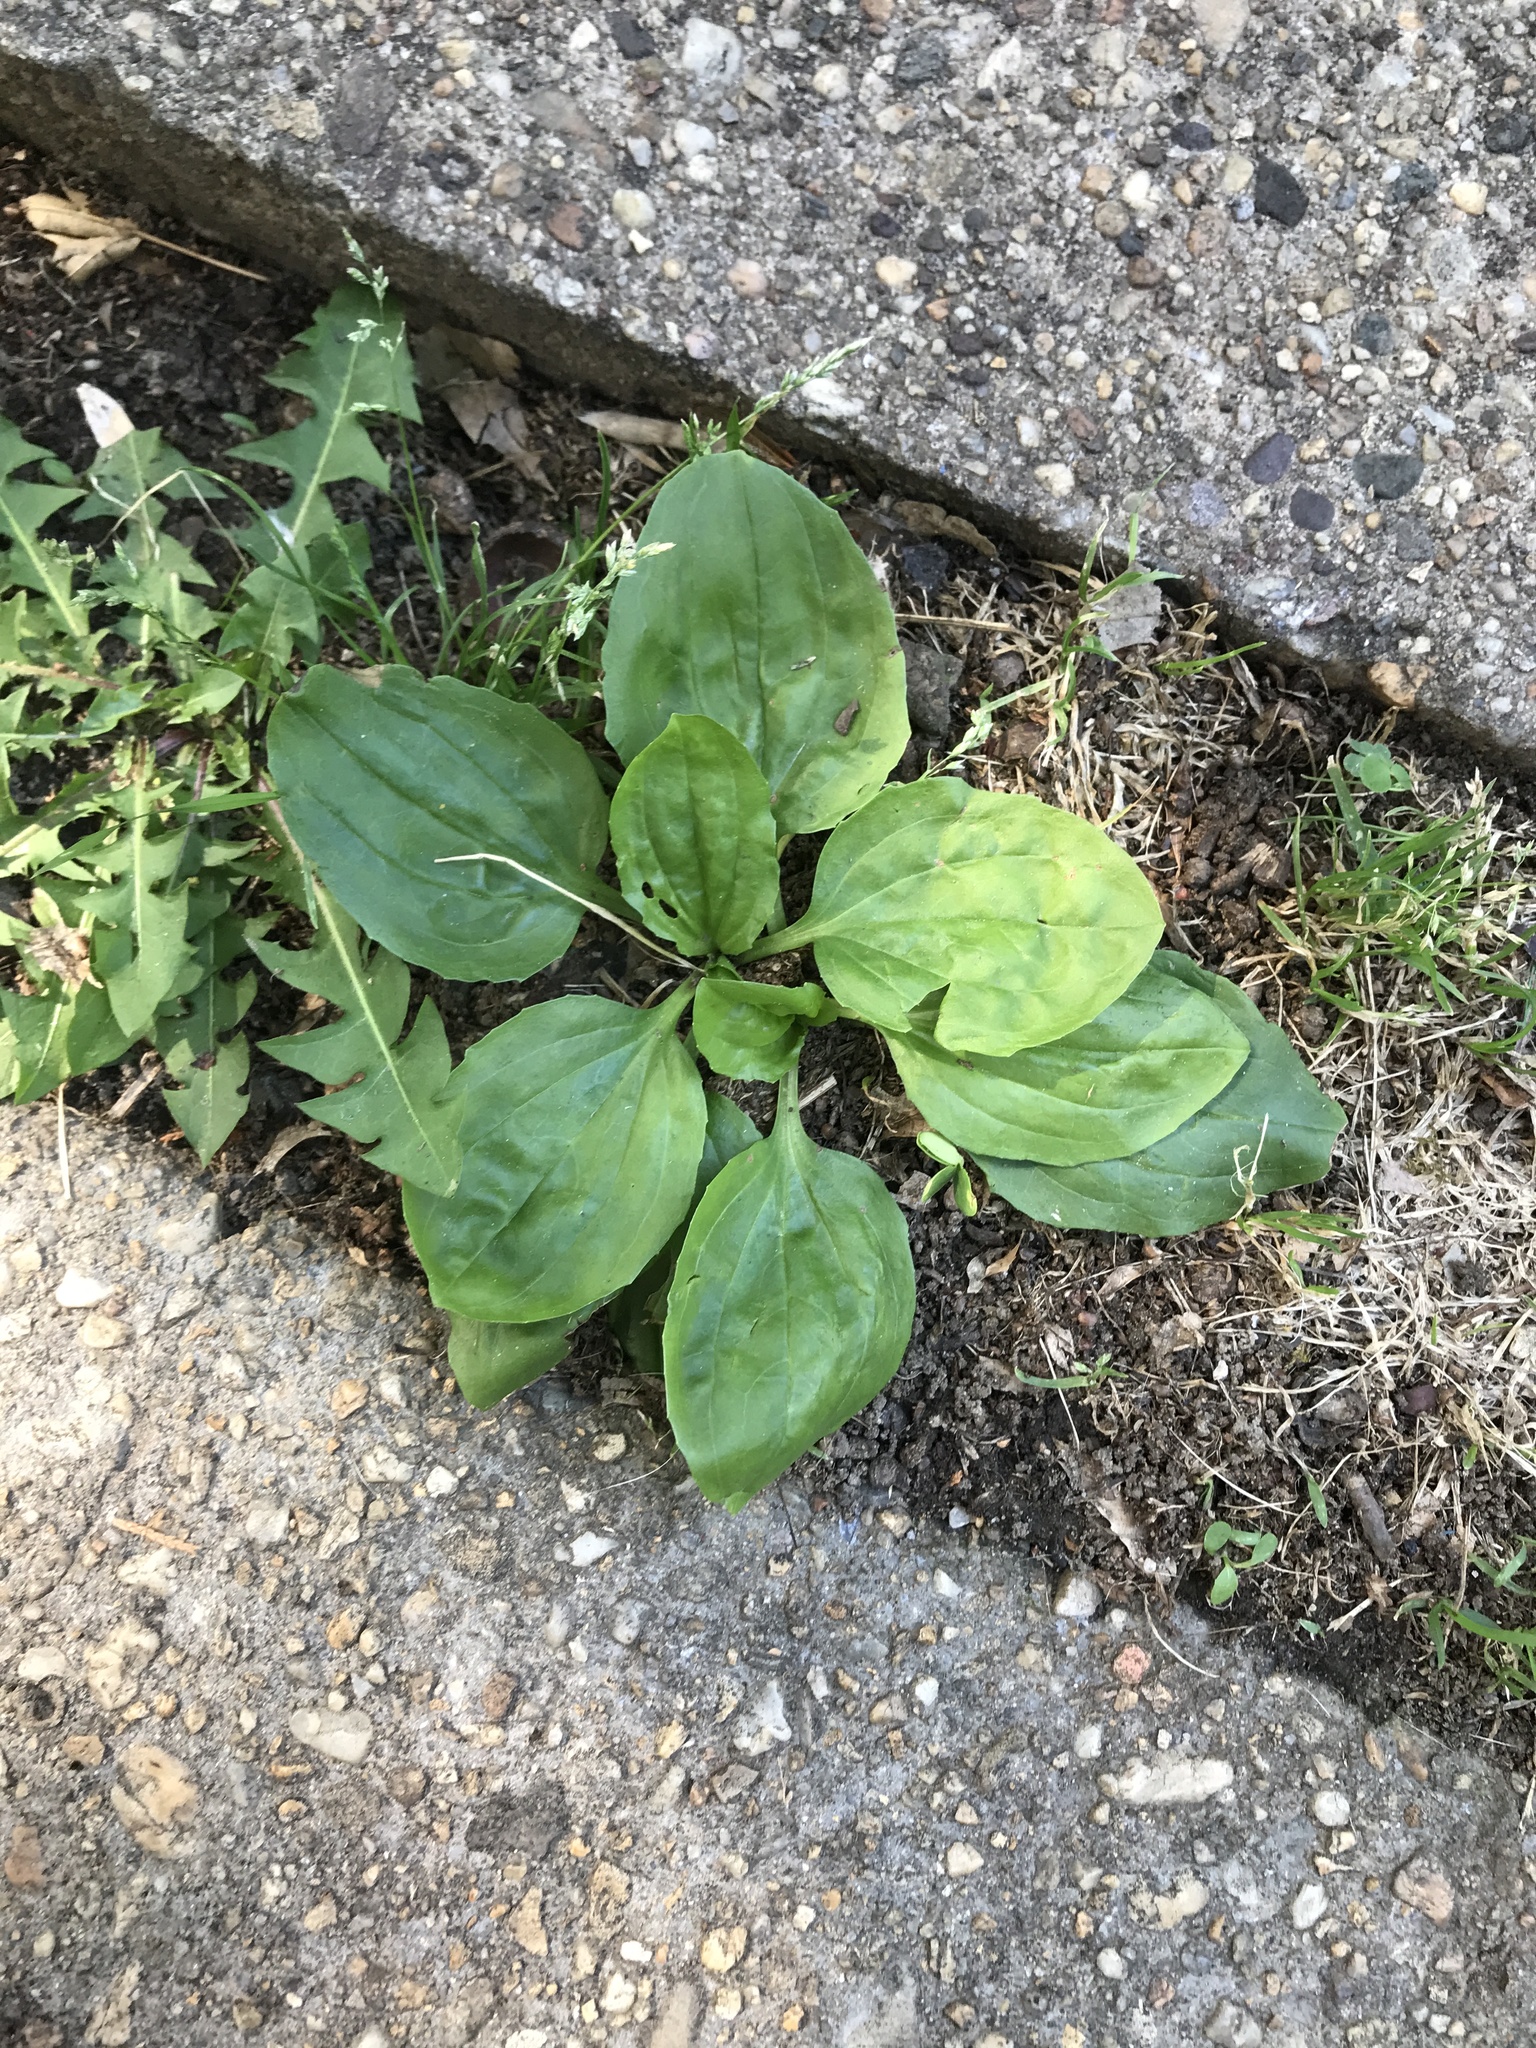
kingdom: Plantae
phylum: Tracheophyta
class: Magnoliopsida
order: Lamiales
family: Plantaginaceae
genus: Plantago
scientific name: Plantago major
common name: Common plantain
